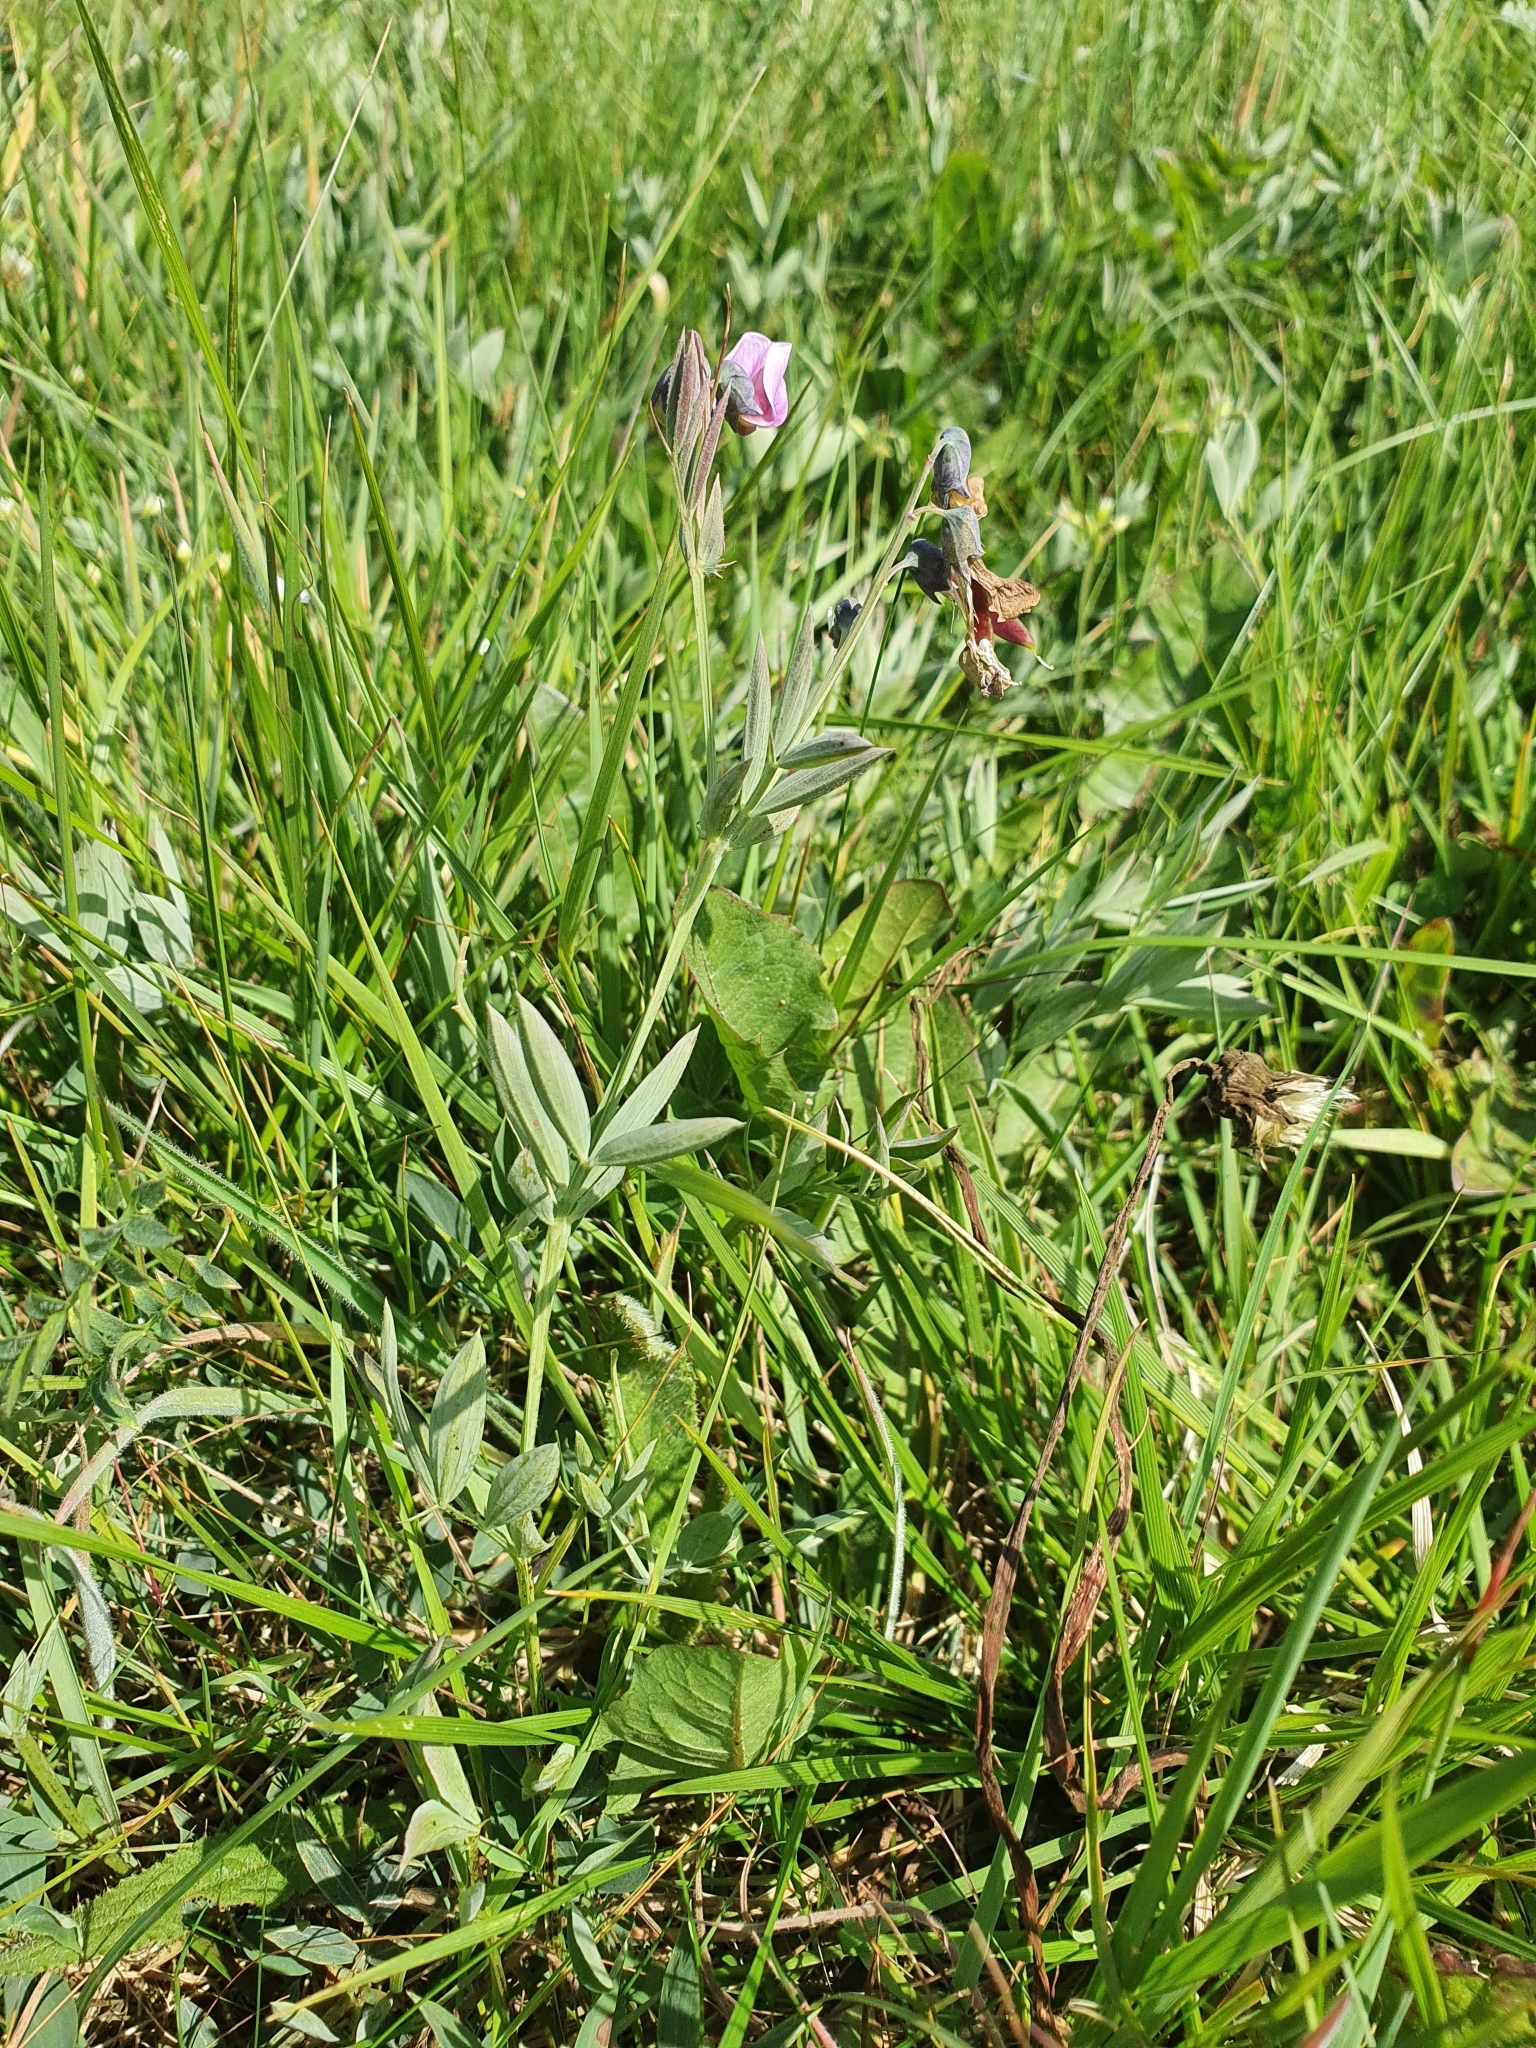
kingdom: Plantae
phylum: Tracheophyta
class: Magnoliopsida
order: Fabales
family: Fabaceae
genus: Lathyrus
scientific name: Lathyrus linifolius
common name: Bitter-vetch
